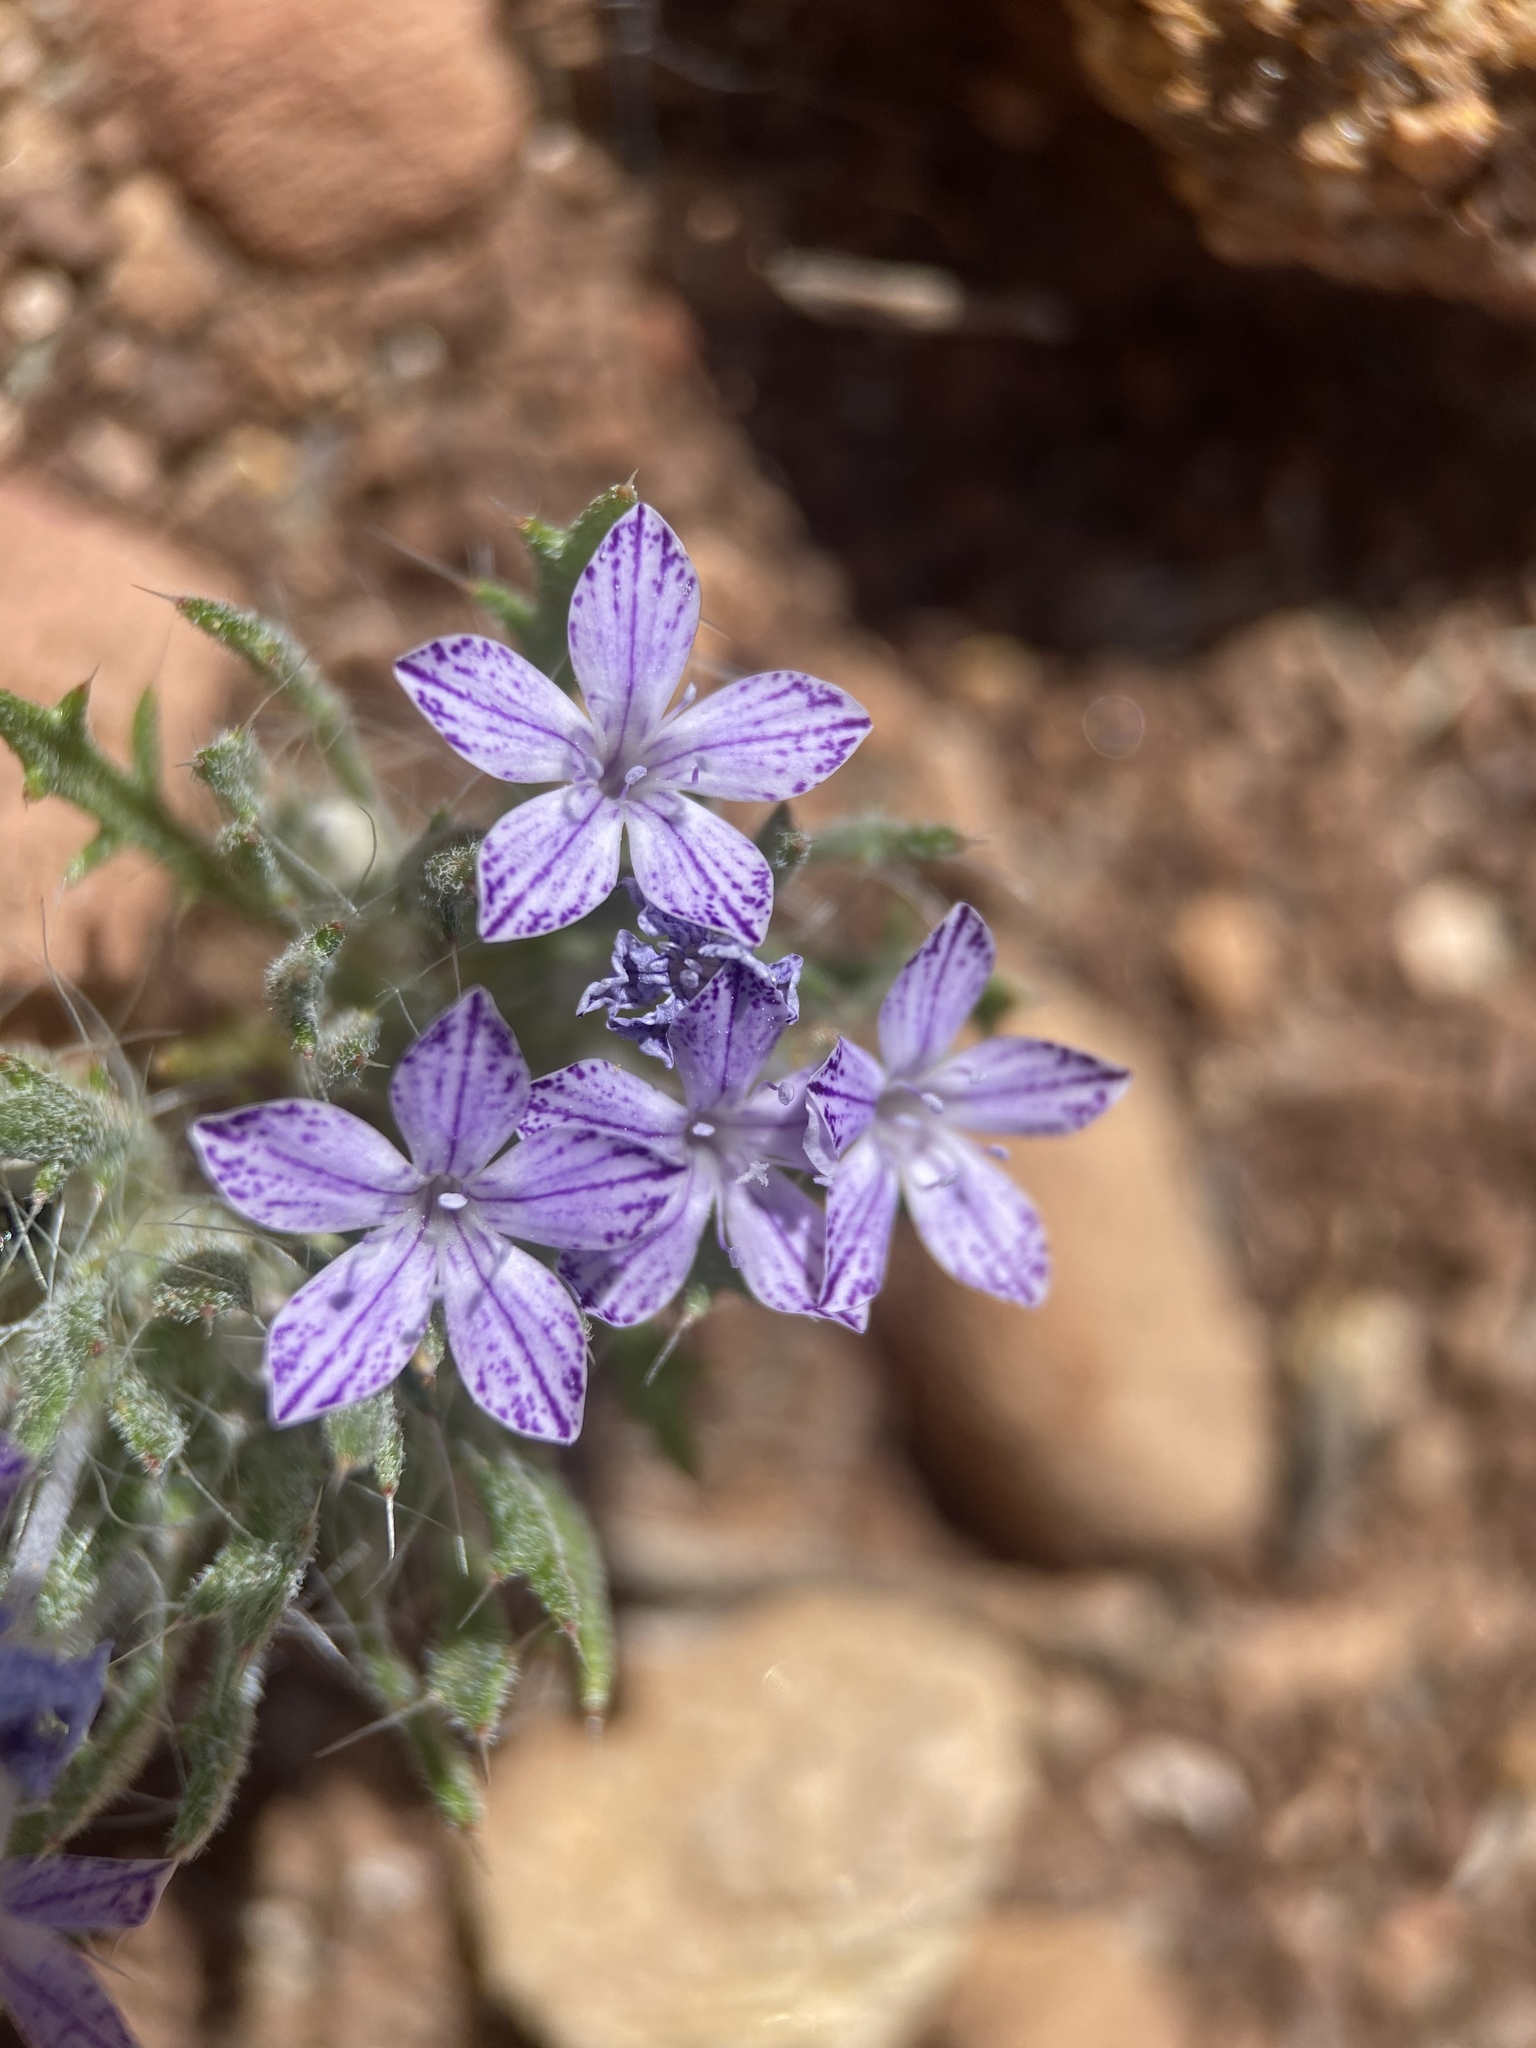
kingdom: Plantae
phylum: Tracheophyta
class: Magnoliopsida
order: Ericales
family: Polemoniaceae
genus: Langloisia
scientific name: Langloisia setosissima
